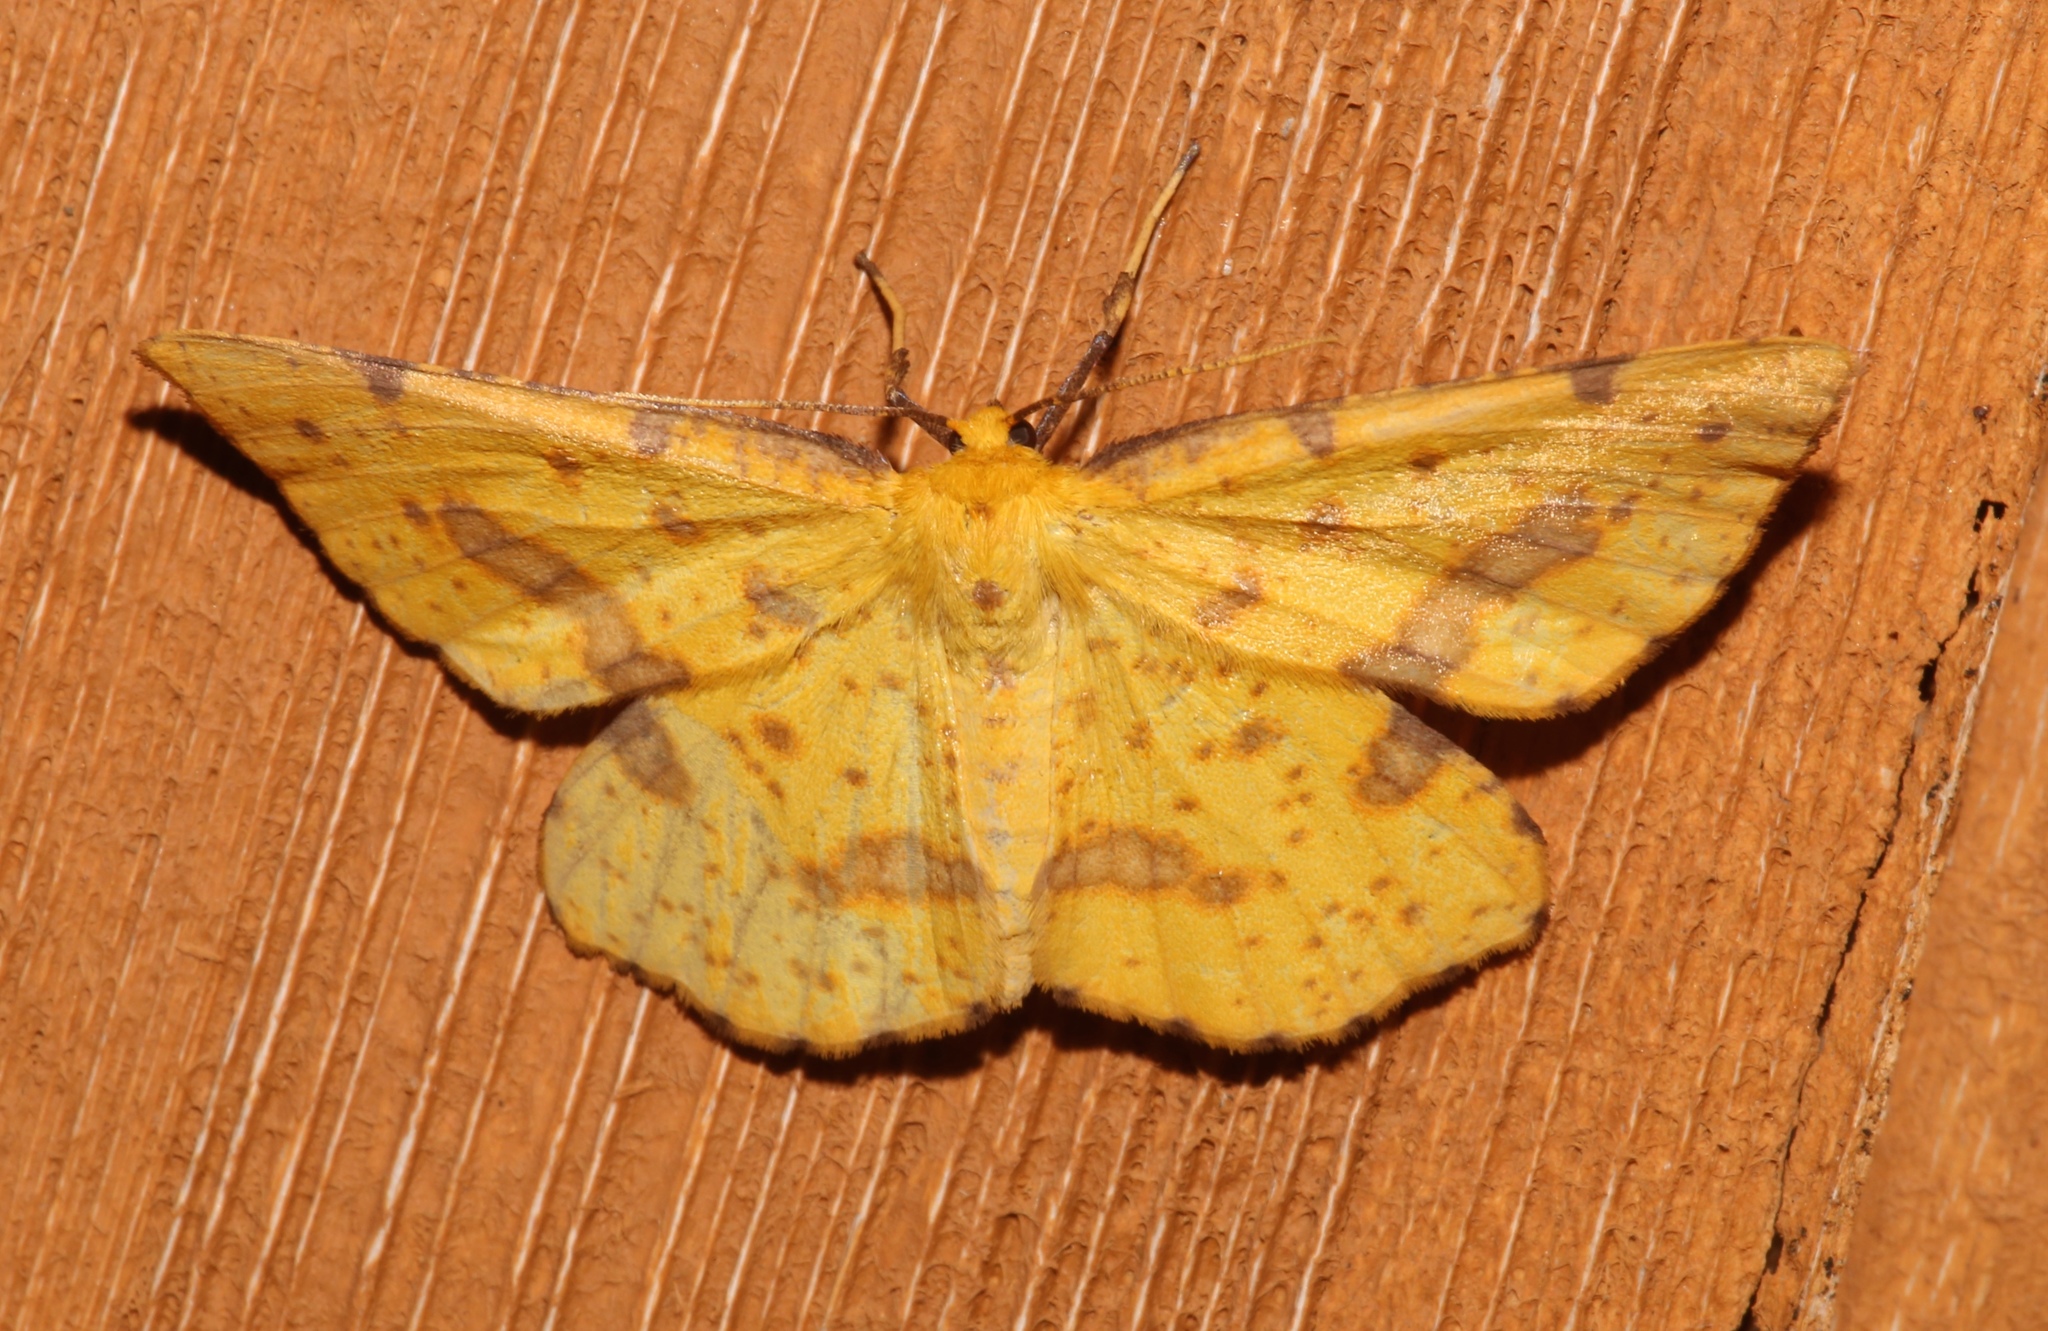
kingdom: Animalia
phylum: Arthropoda
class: Insecta
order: Lepidoptera
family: Geometridae
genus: Xanthotype
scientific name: Xanthotype
